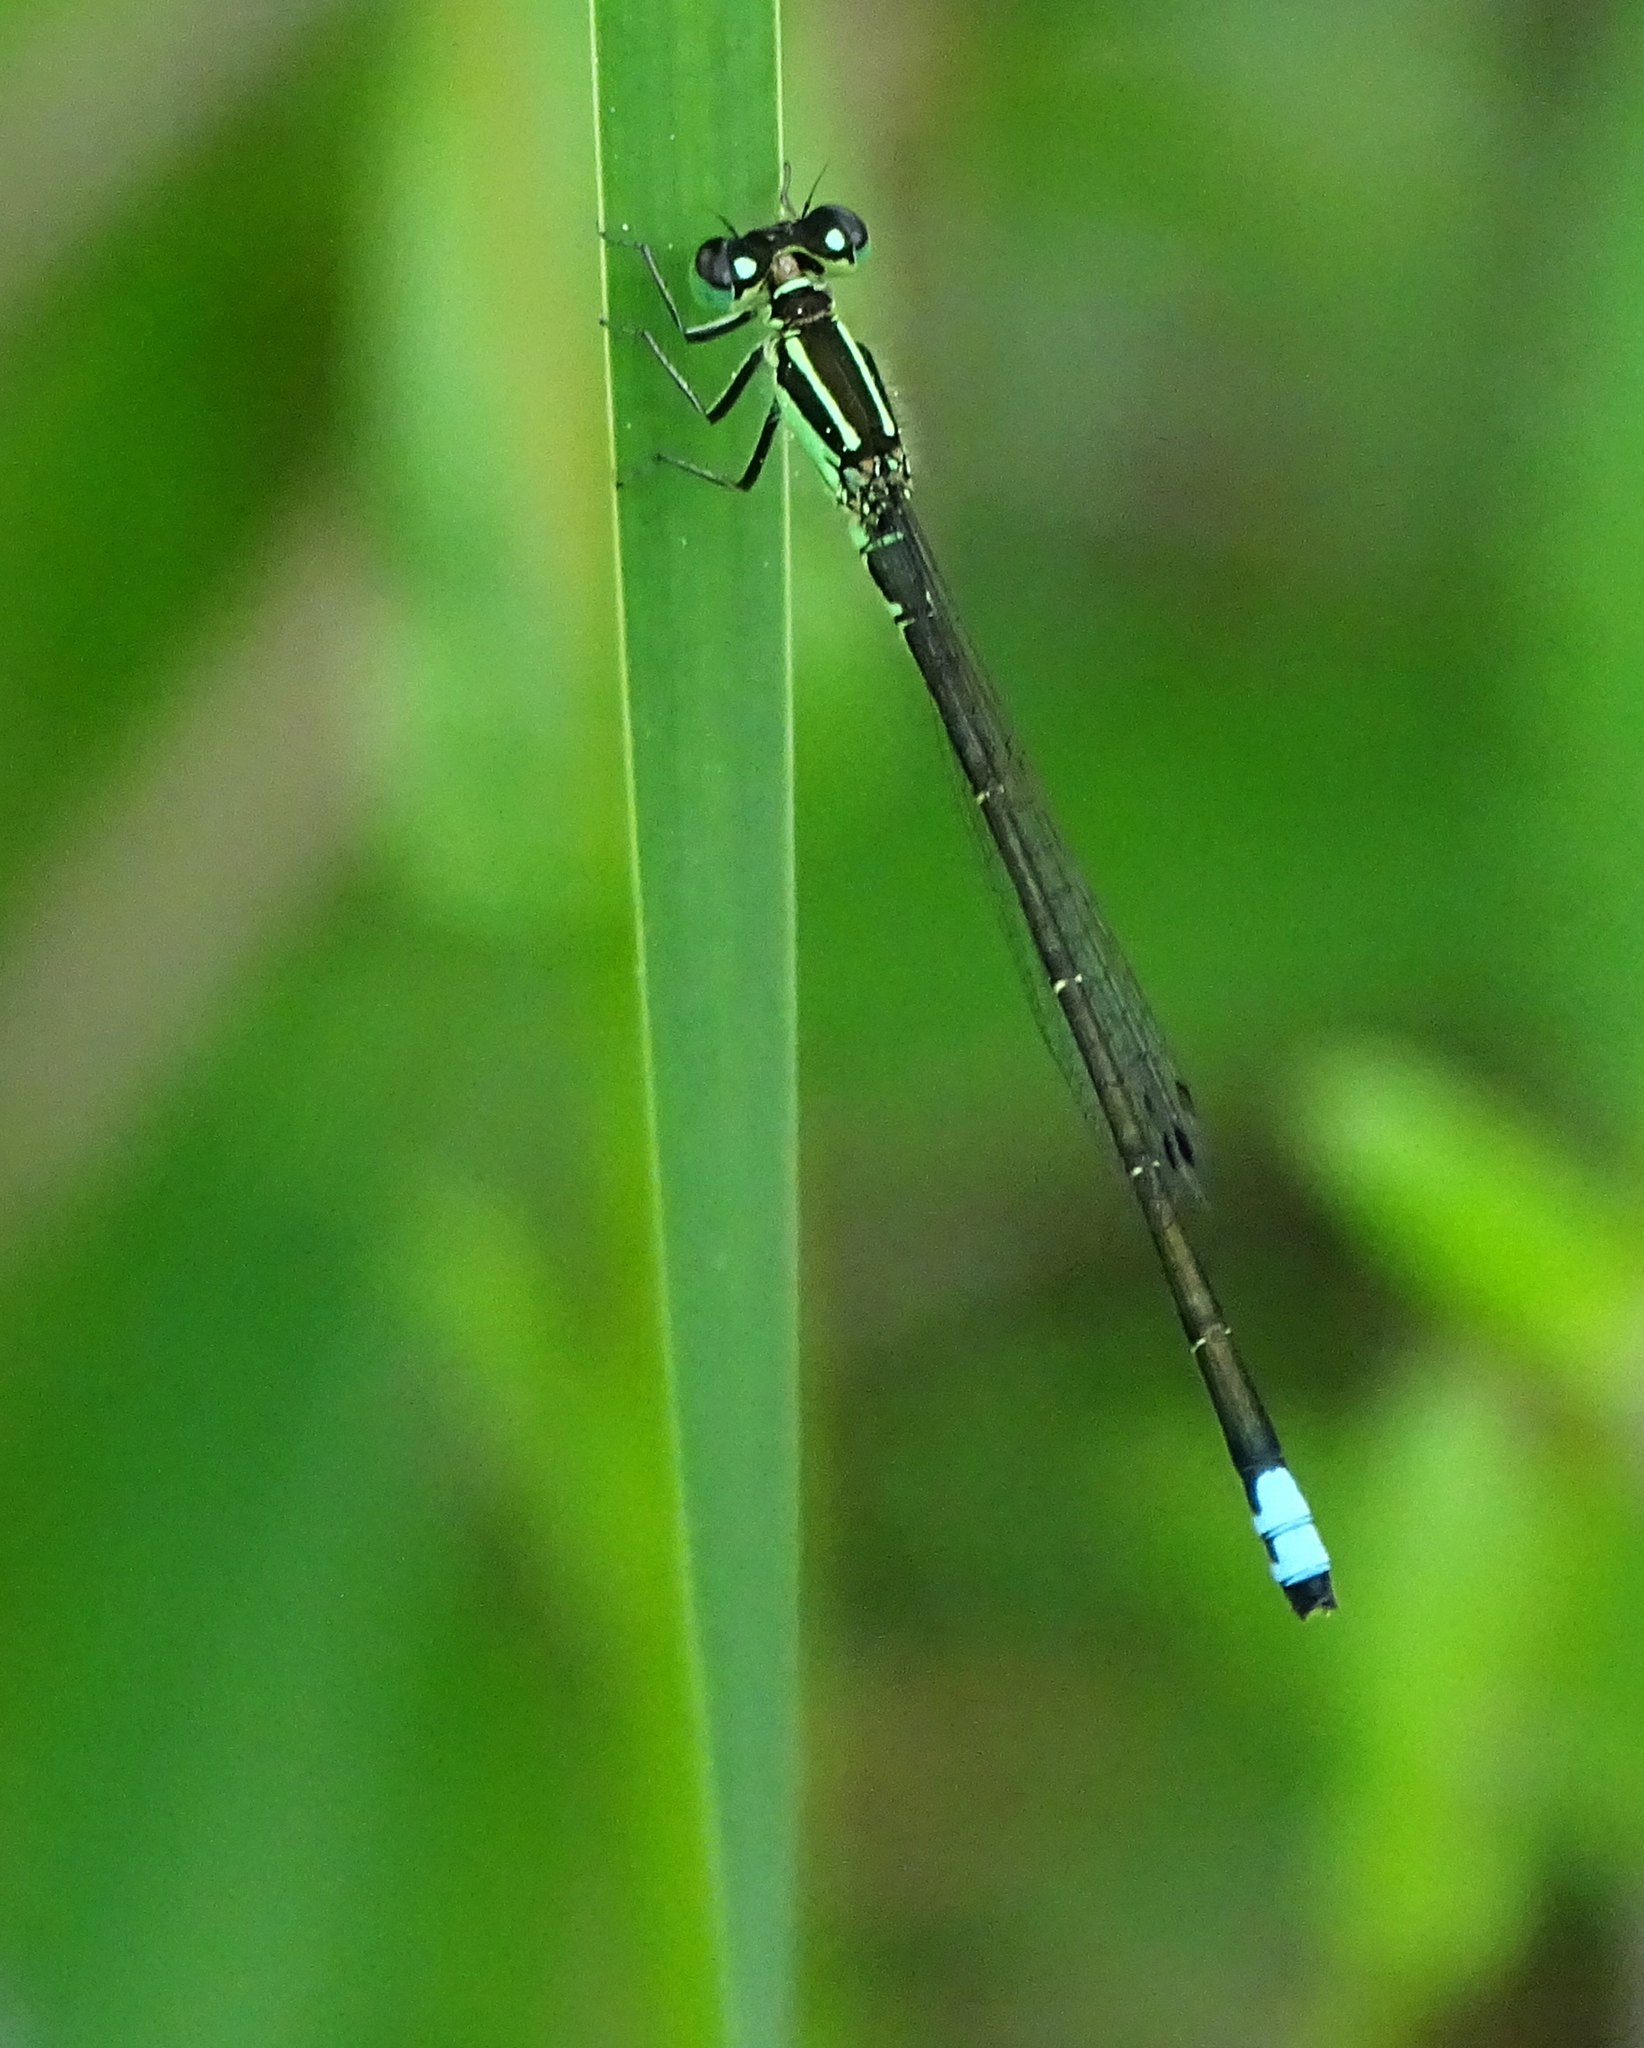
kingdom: Animalia
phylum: Arthropoda
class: Insecta
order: Odonata
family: Coenagrionidae
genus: Ischnura
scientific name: Ischnura verticalis
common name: Eastern forktail
